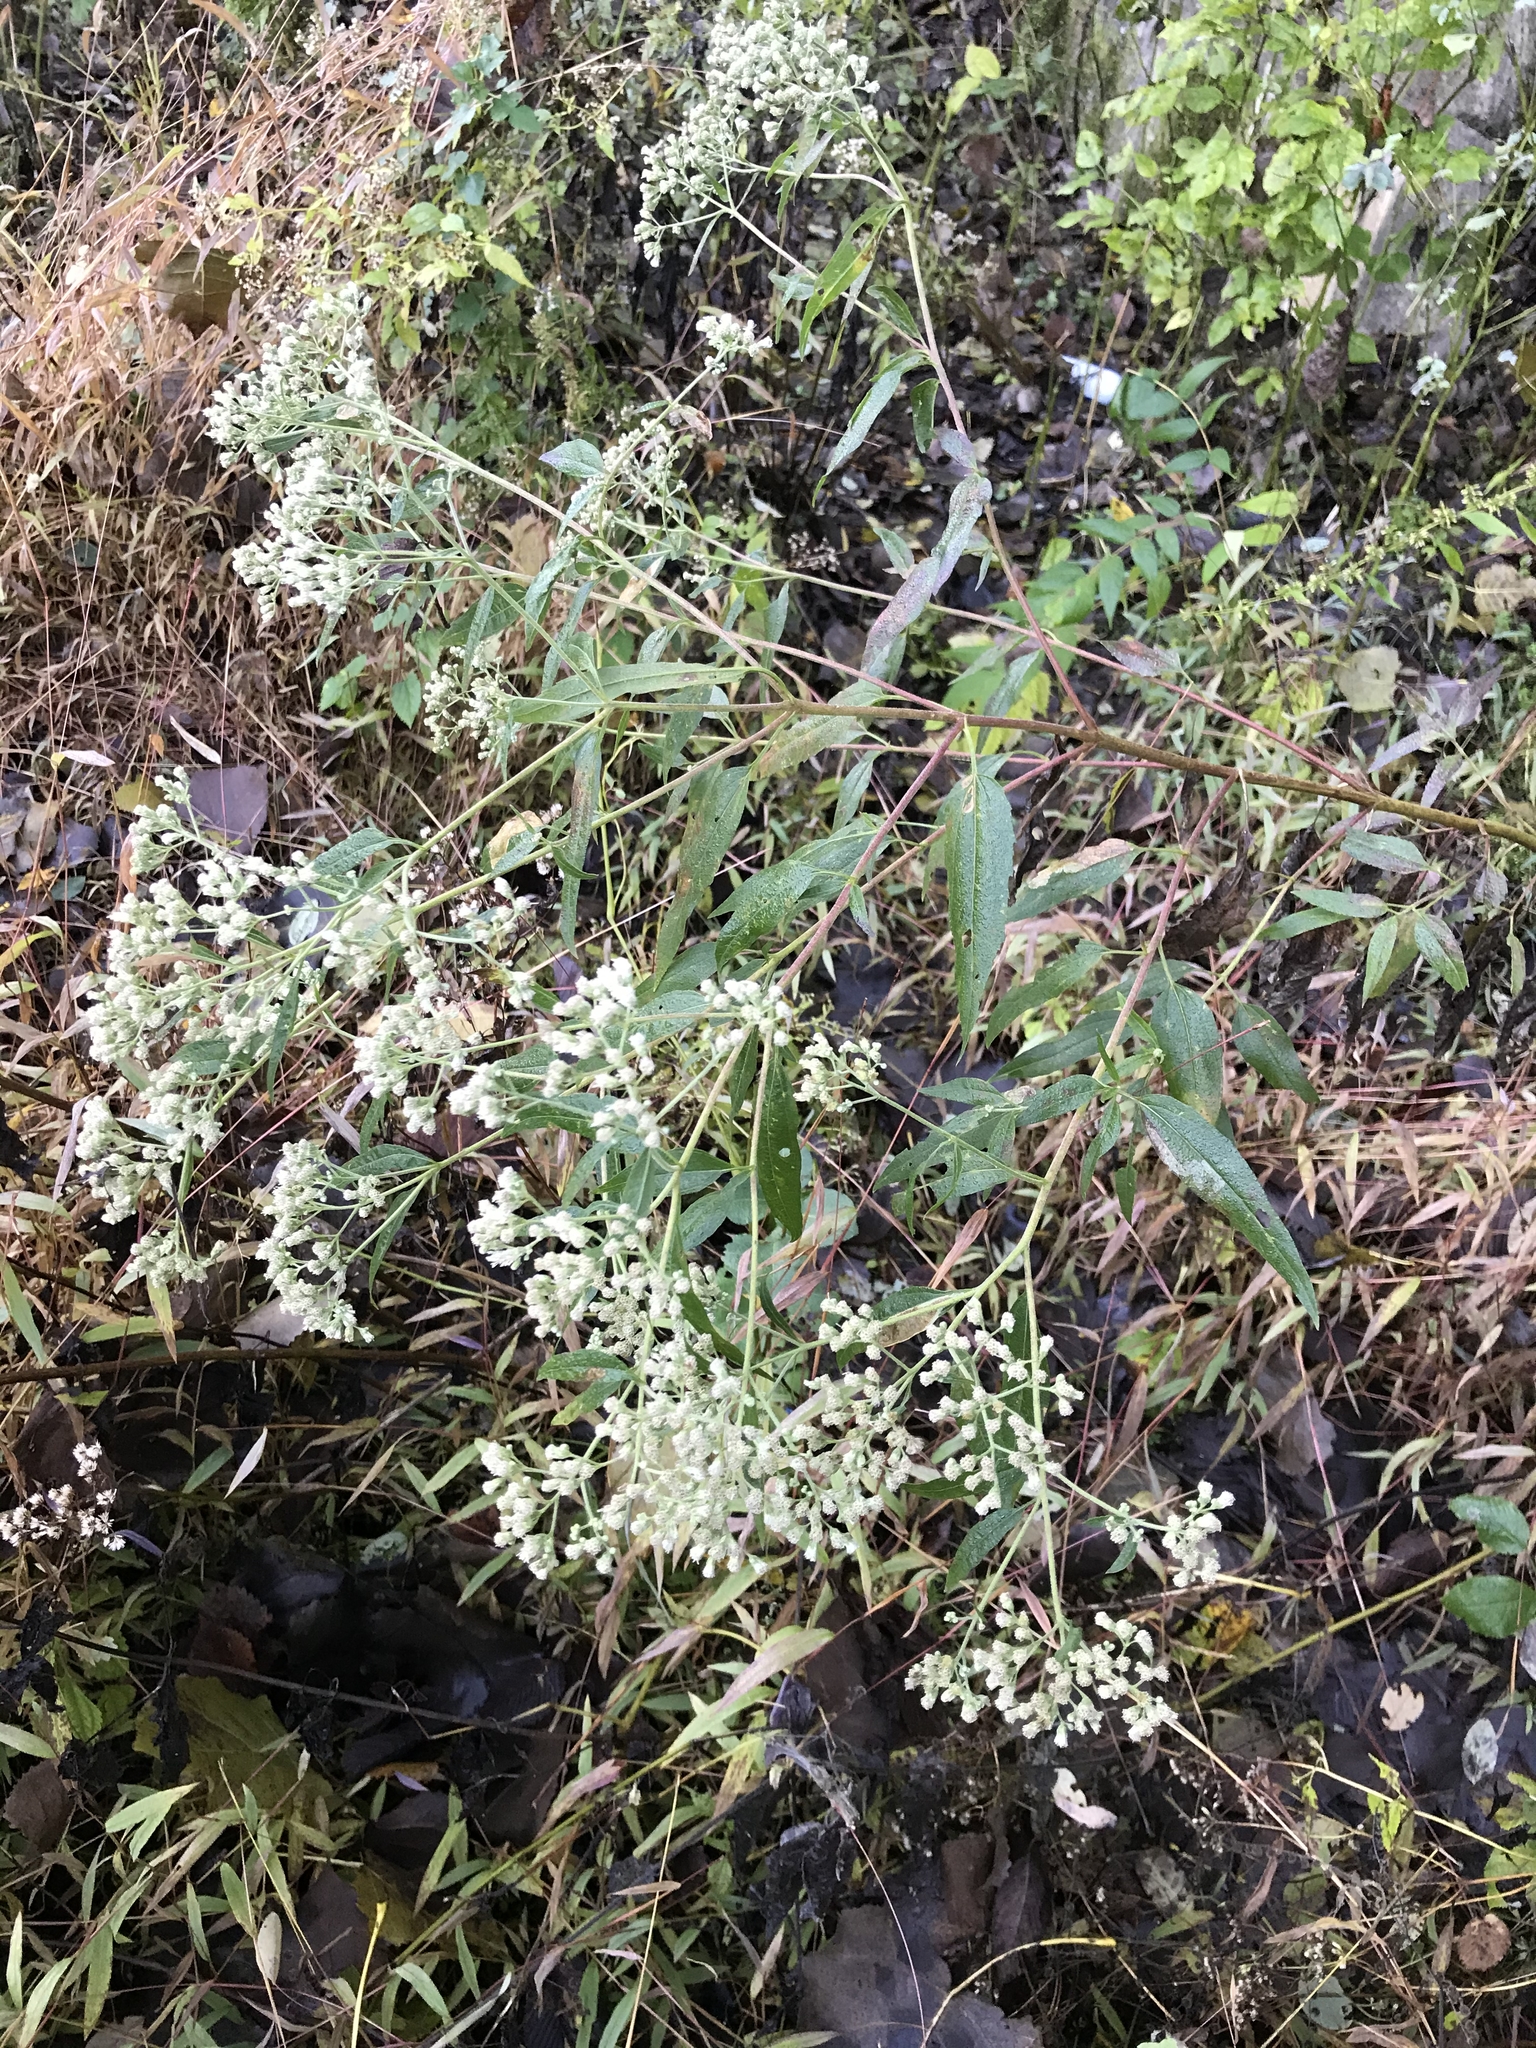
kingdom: Plantae
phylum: Tracheophyta
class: Magnoliopsida
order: Asterales
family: Asteraceae
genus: Eupatorium
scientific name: Eupatorium serotinum
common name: Late boneset
